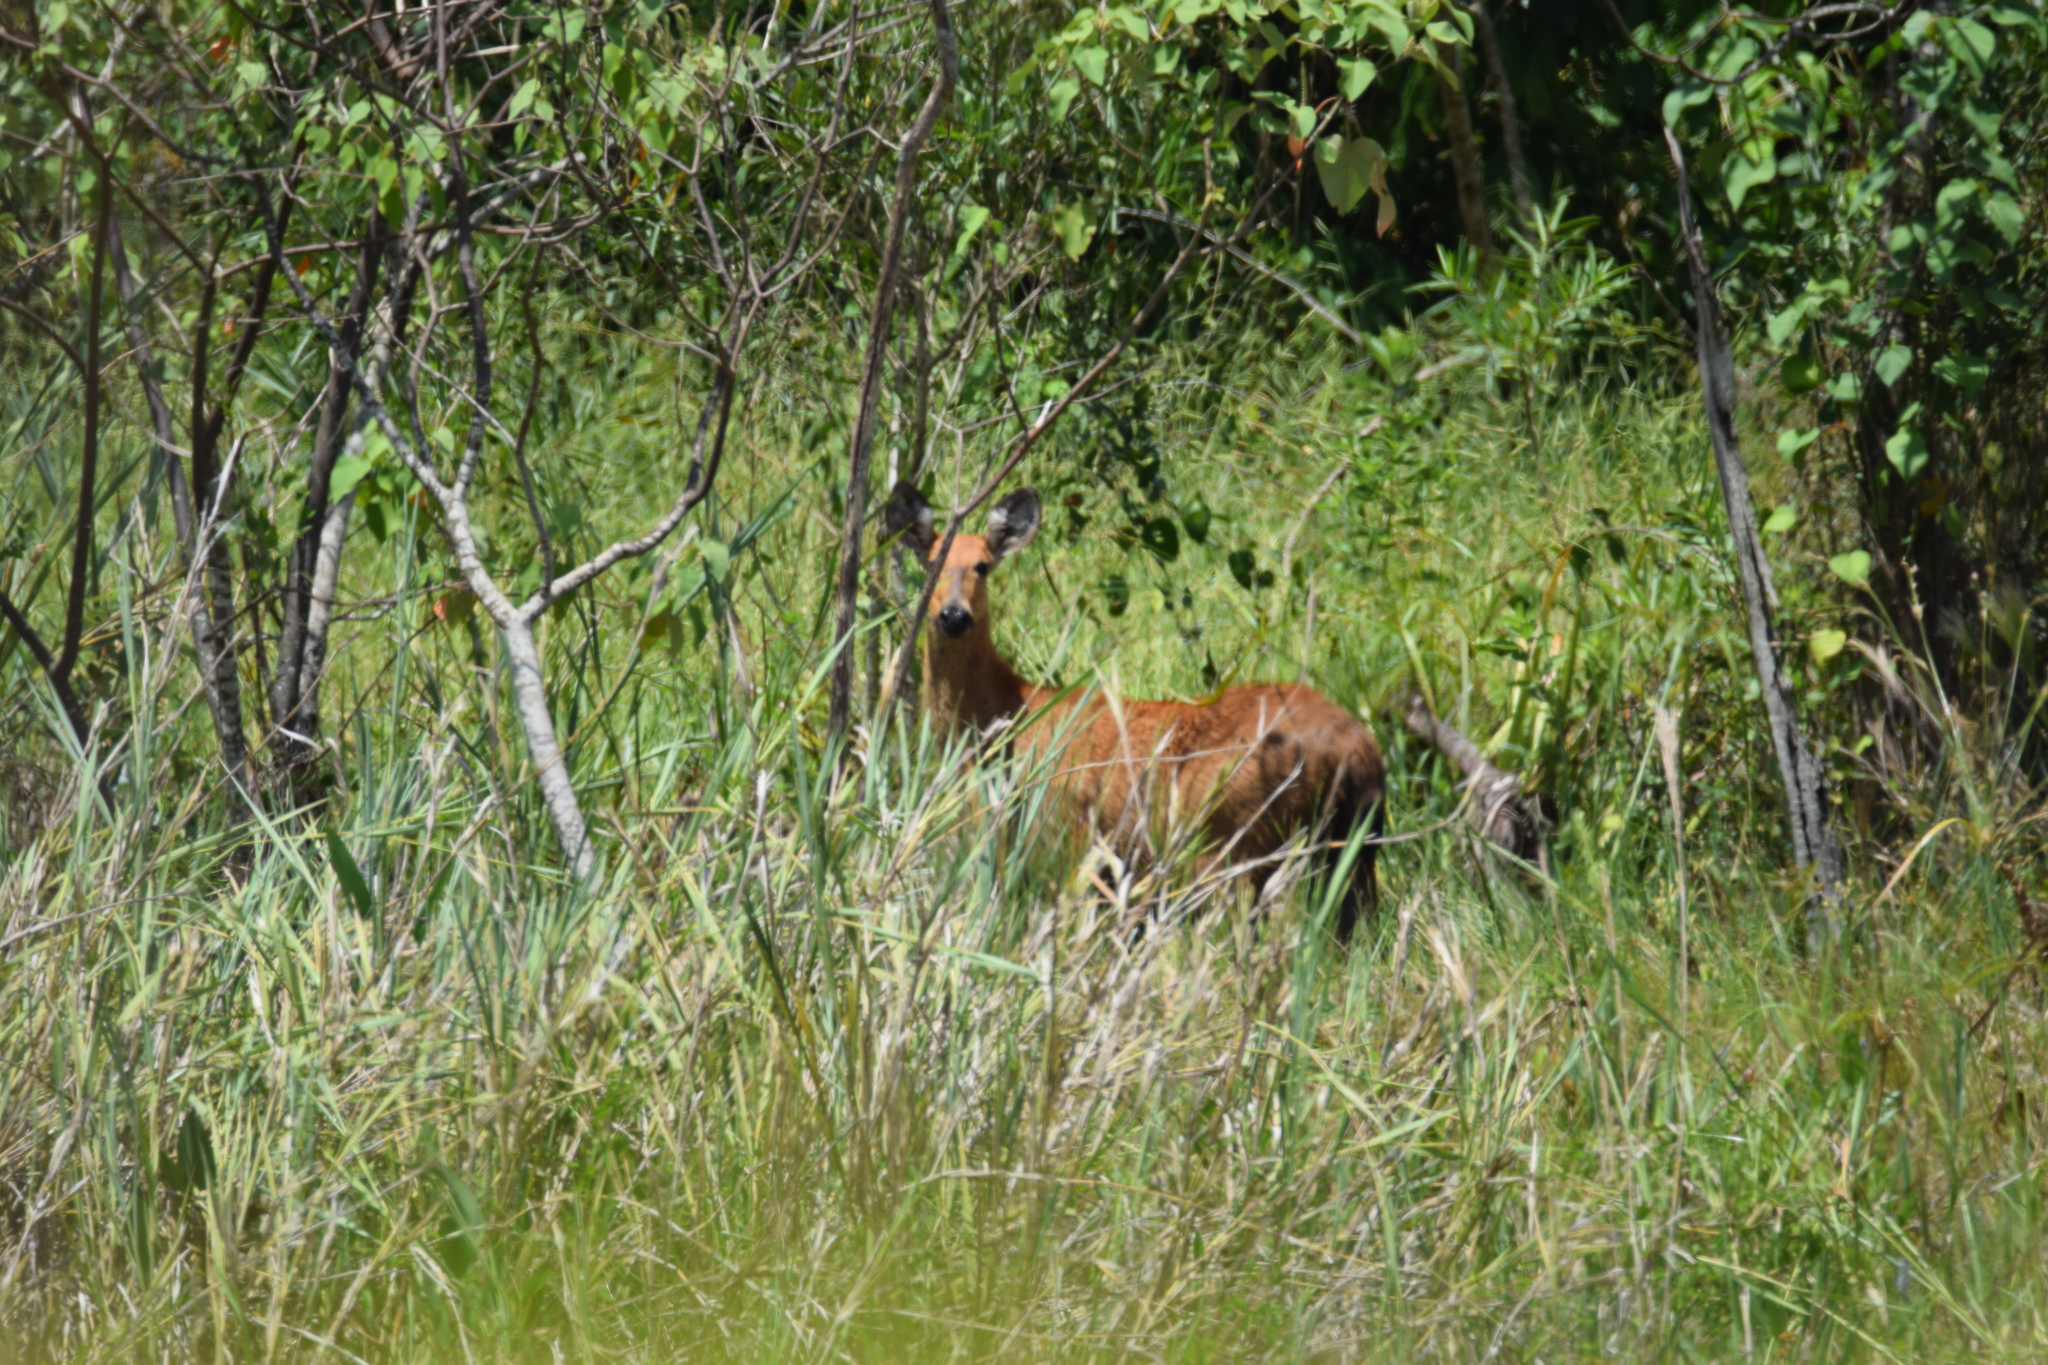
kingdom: Animalia
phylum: Chordata
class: Mammalia
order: Artiodactyla
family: Cervidae
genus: Blastocerus
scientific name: Blastocerus dichotomus
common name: Marsh deer
